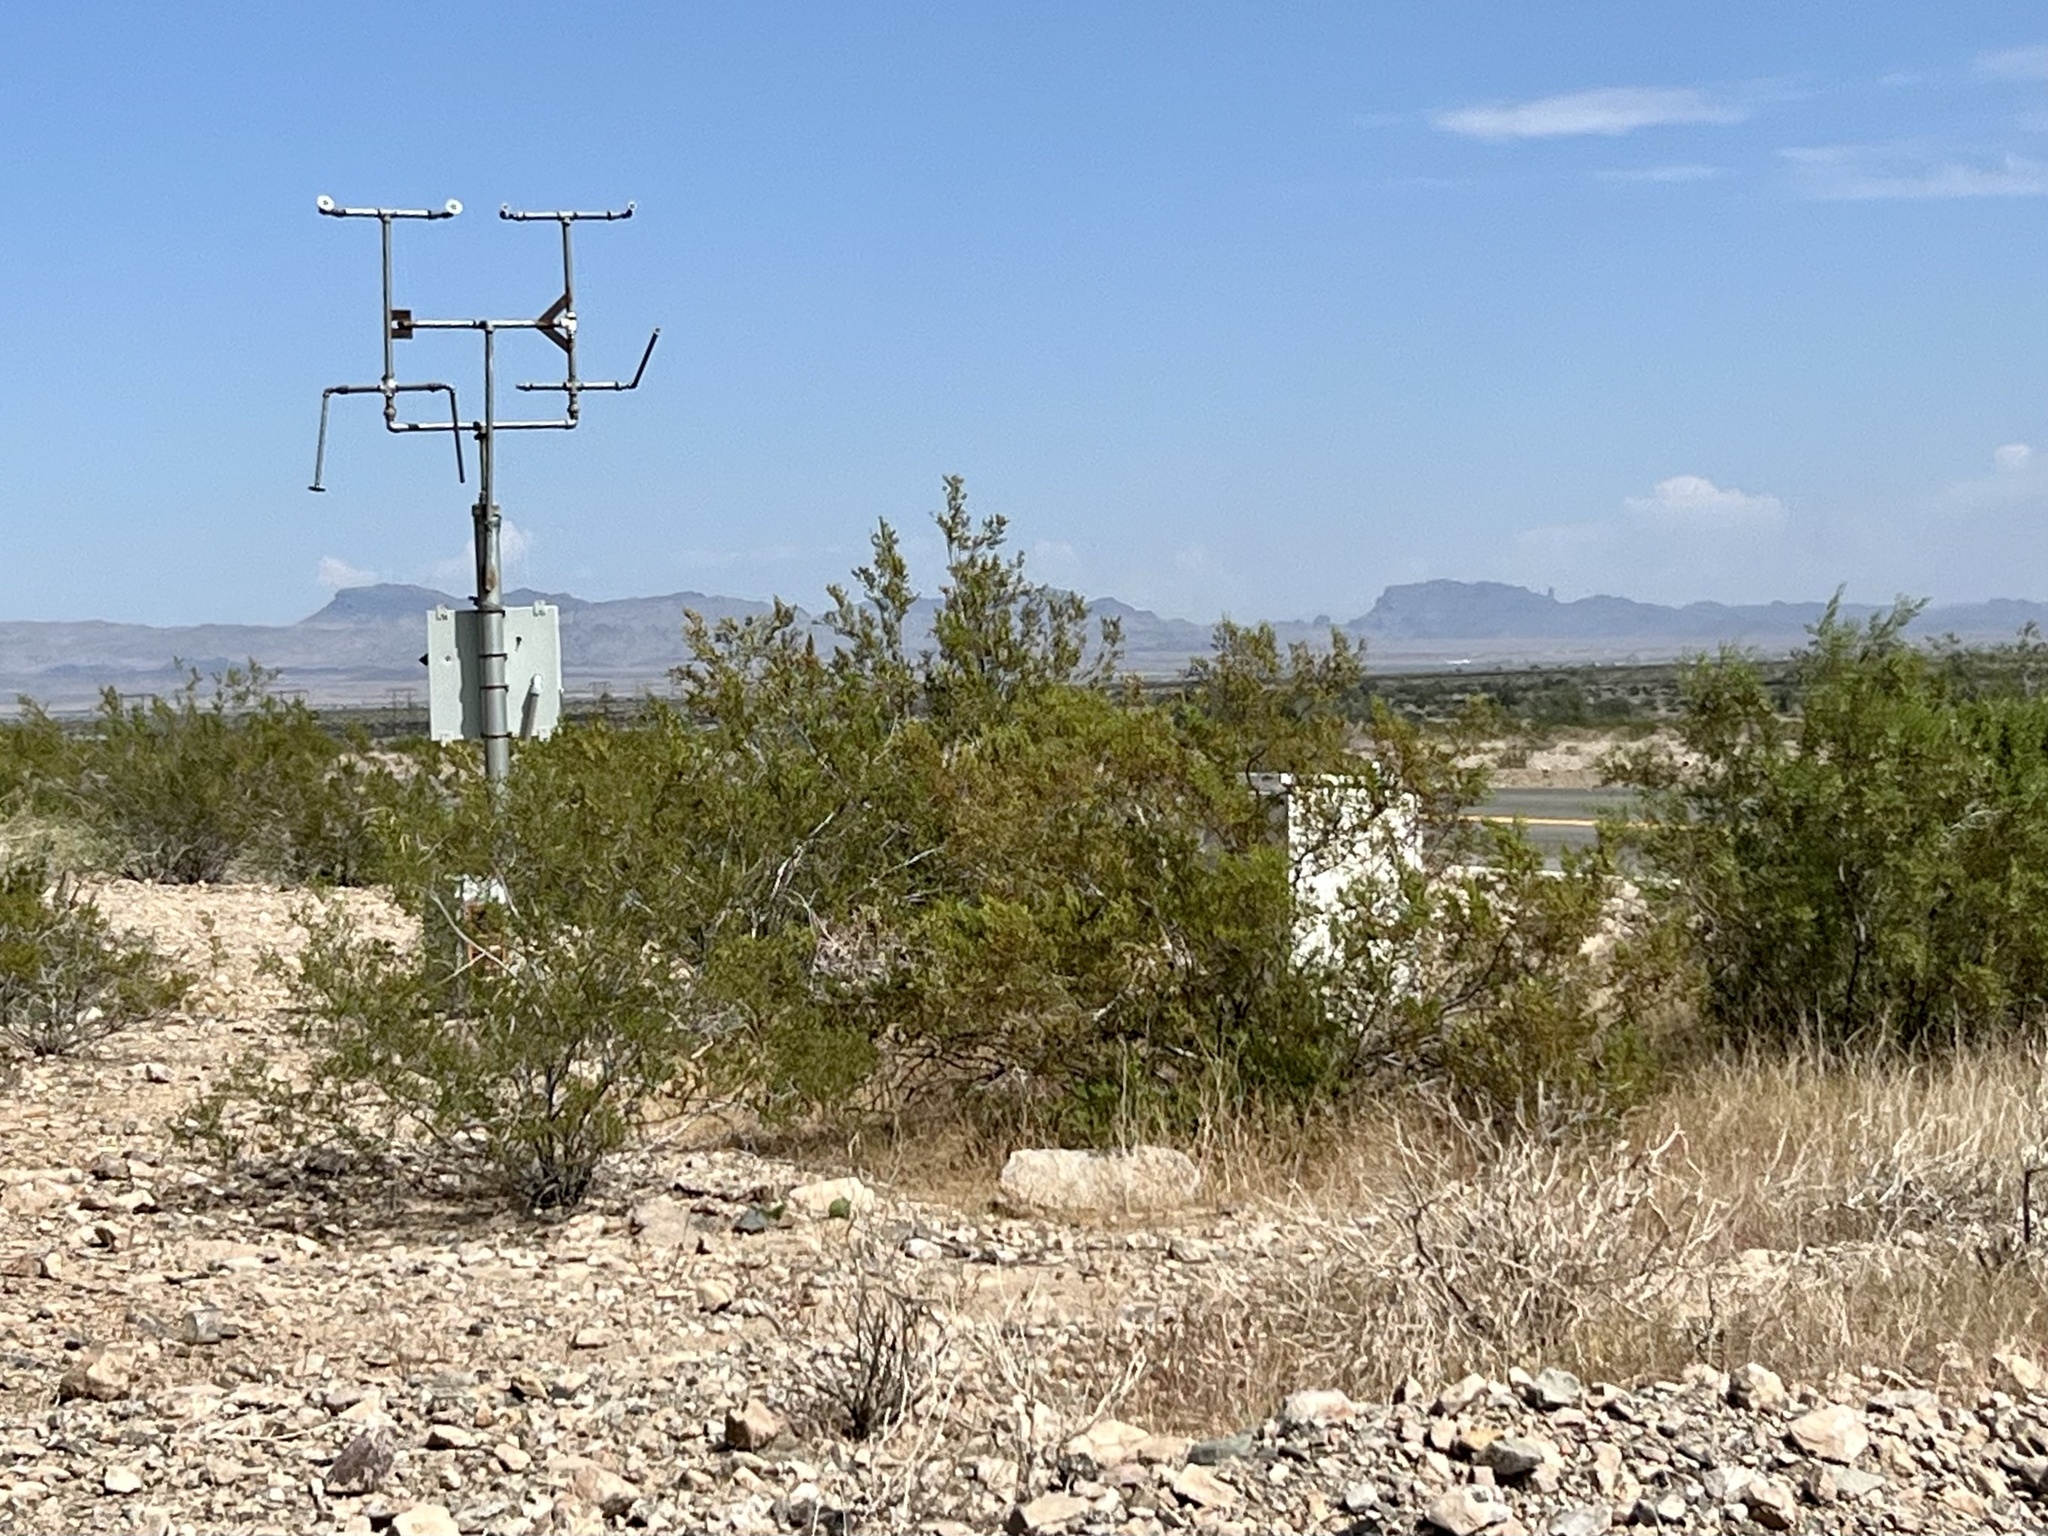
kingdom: Plantae
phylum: Tracheophyta
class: Magnoliopsida
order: Zygophyllales
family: Zygophyllaceae
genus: Larrea
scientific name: Larrea tridentata
